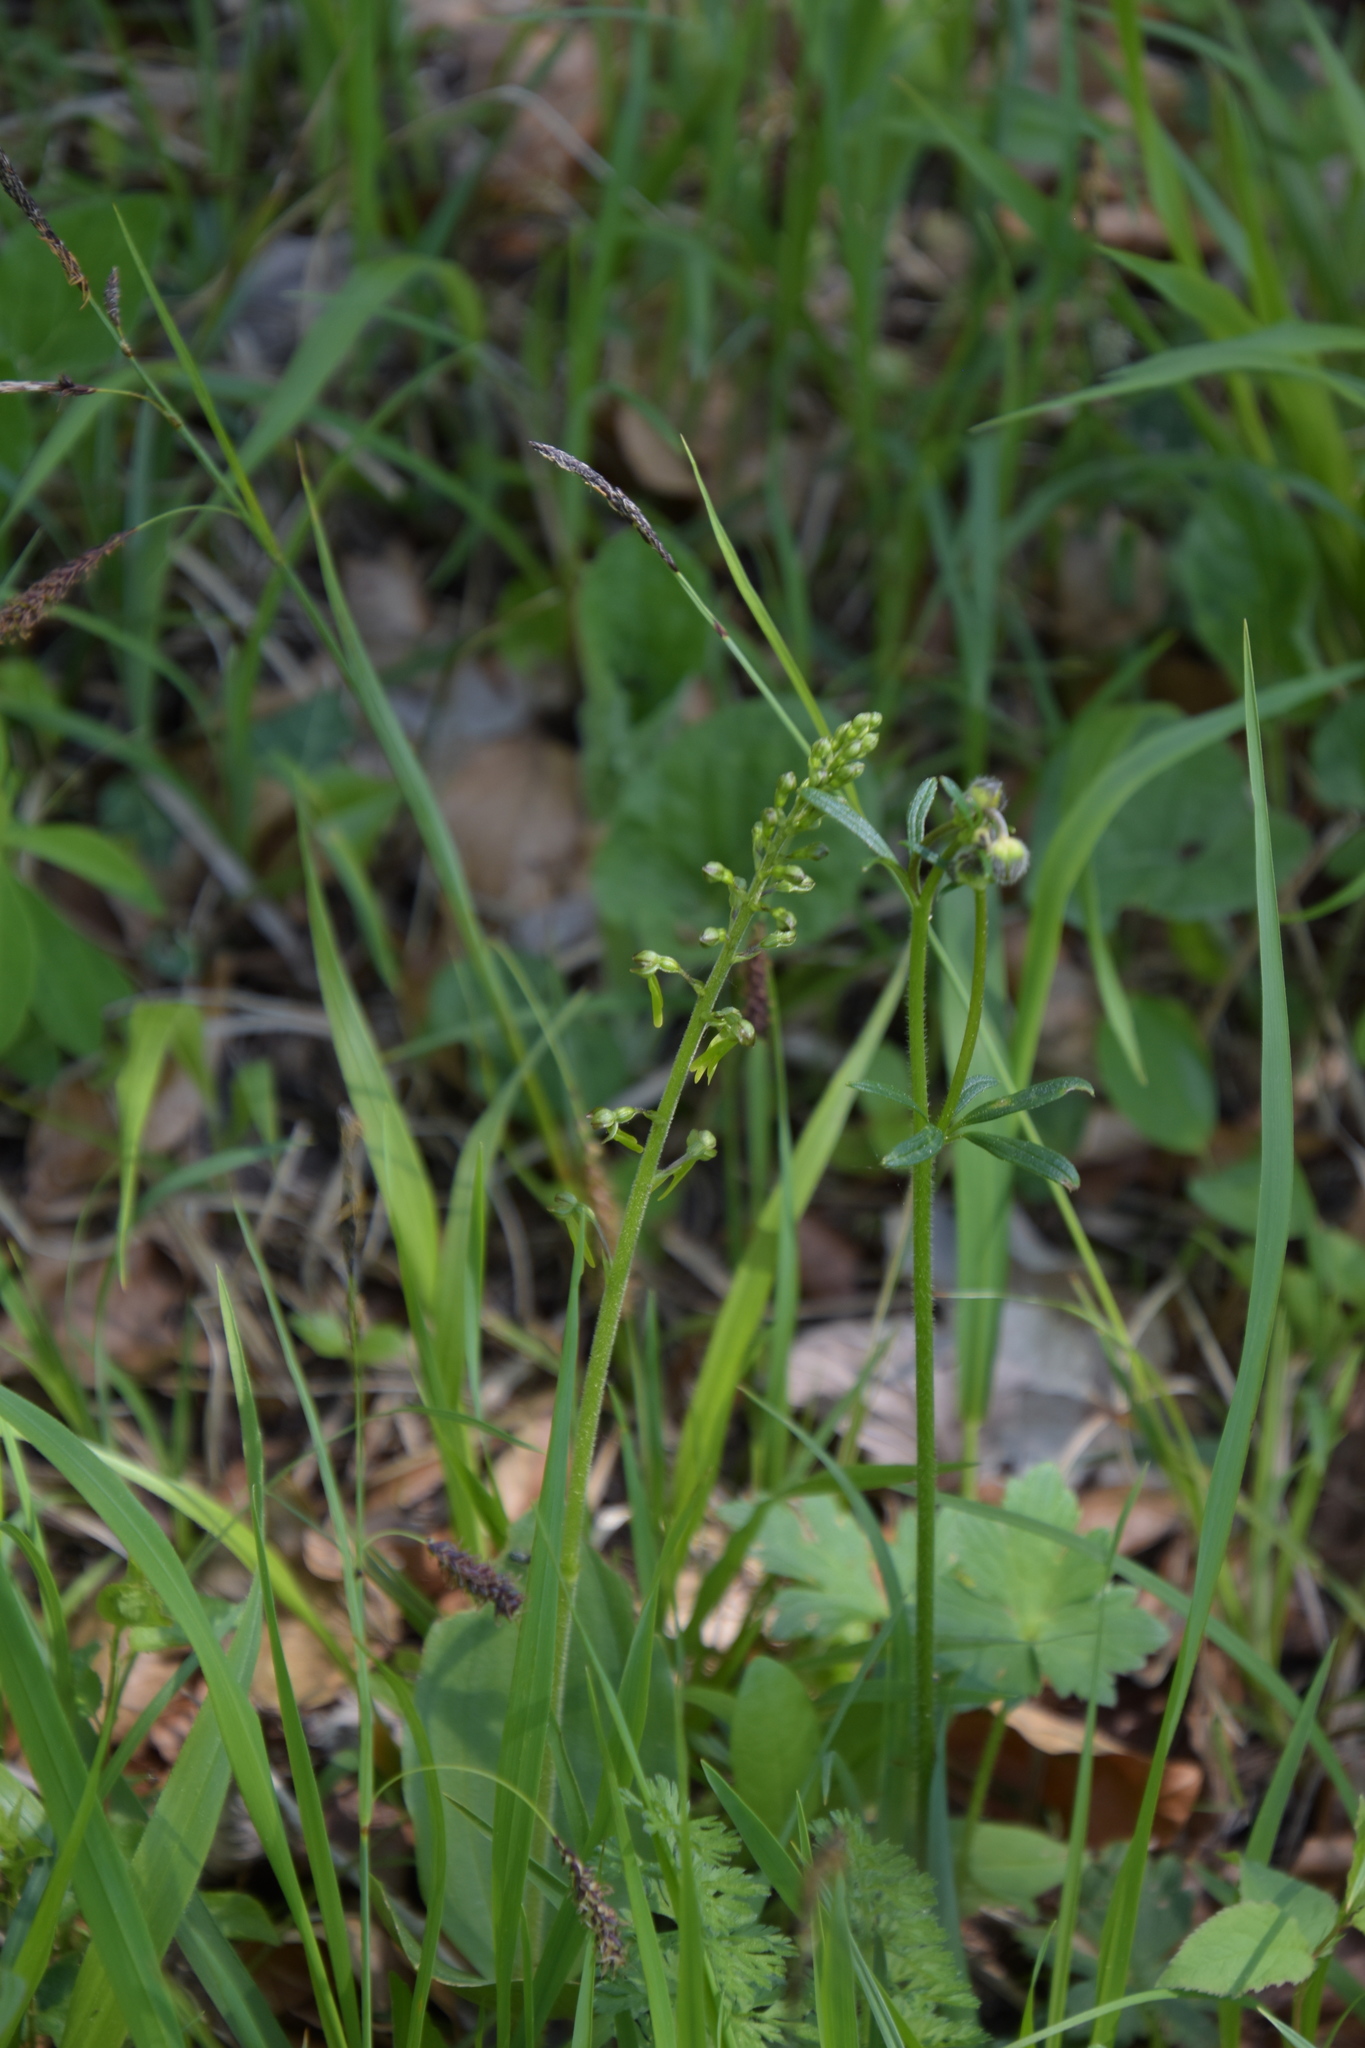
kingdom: Plantae
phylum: Tracheophyta
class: Liliopsida
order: Asparagales
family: Orchidaceae
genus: Neottia
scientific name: Neottia ovata
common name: Common twayblade
